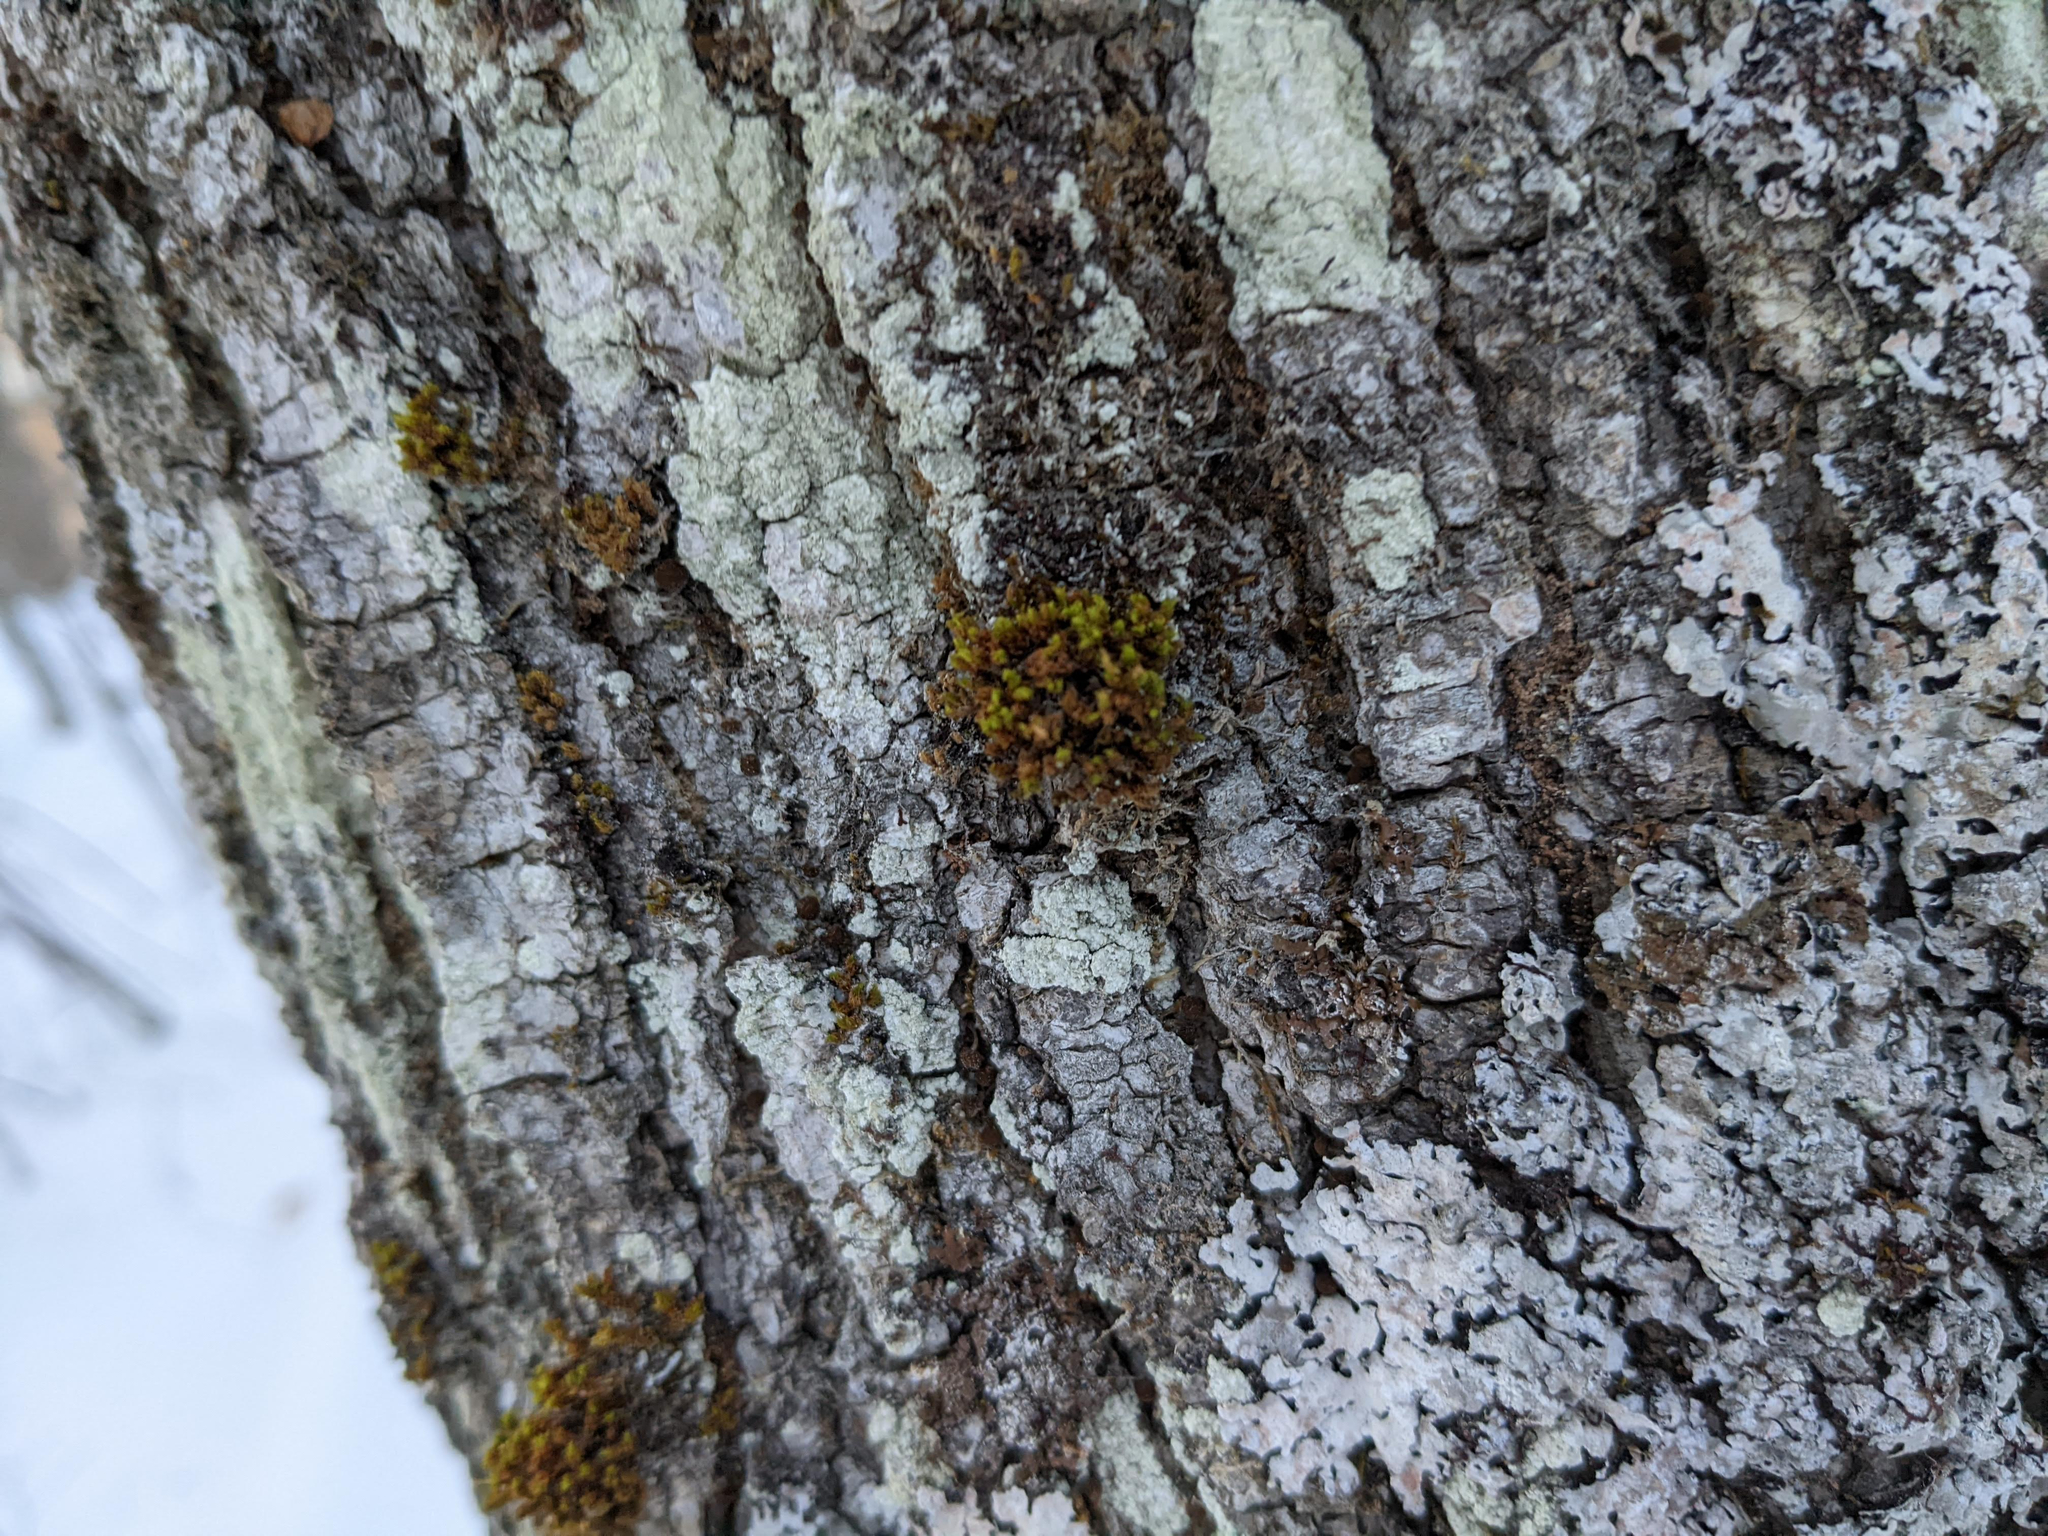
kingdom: Plantae
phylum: Bryophyta
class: Bryopsida
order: Orthotrichales
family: Orthotrichaceae
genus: Ulota
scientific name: Ulota crispa
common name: Crisped pincushion moss
